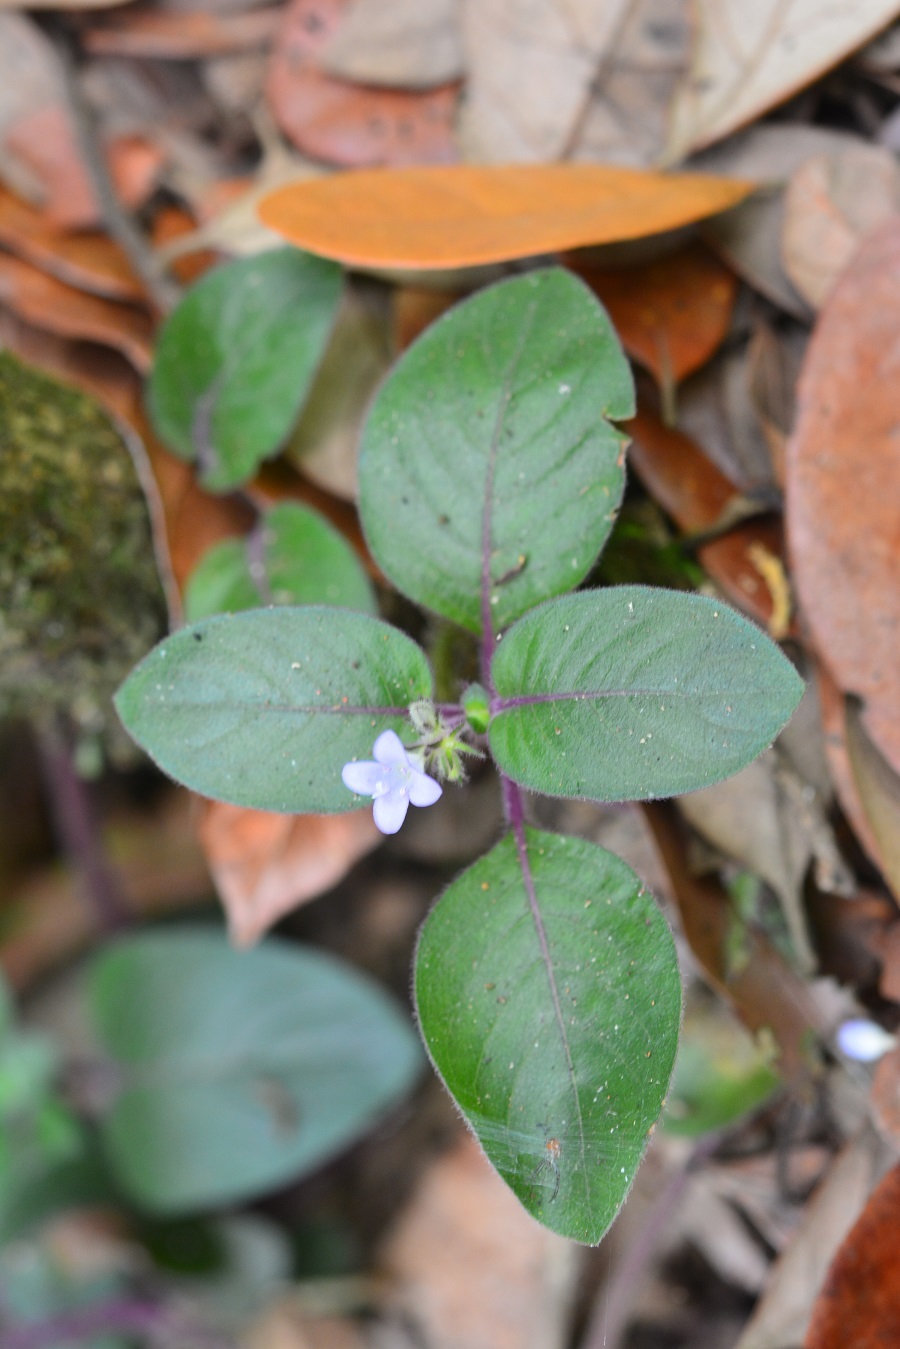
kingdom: Plantae
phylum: Tracheophyta
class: Magnoliopsida
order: Gentianales
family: Rubiaceae
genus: Coccocypselum
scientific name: Coccocypselum hirsutum
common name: Yerba de guava
